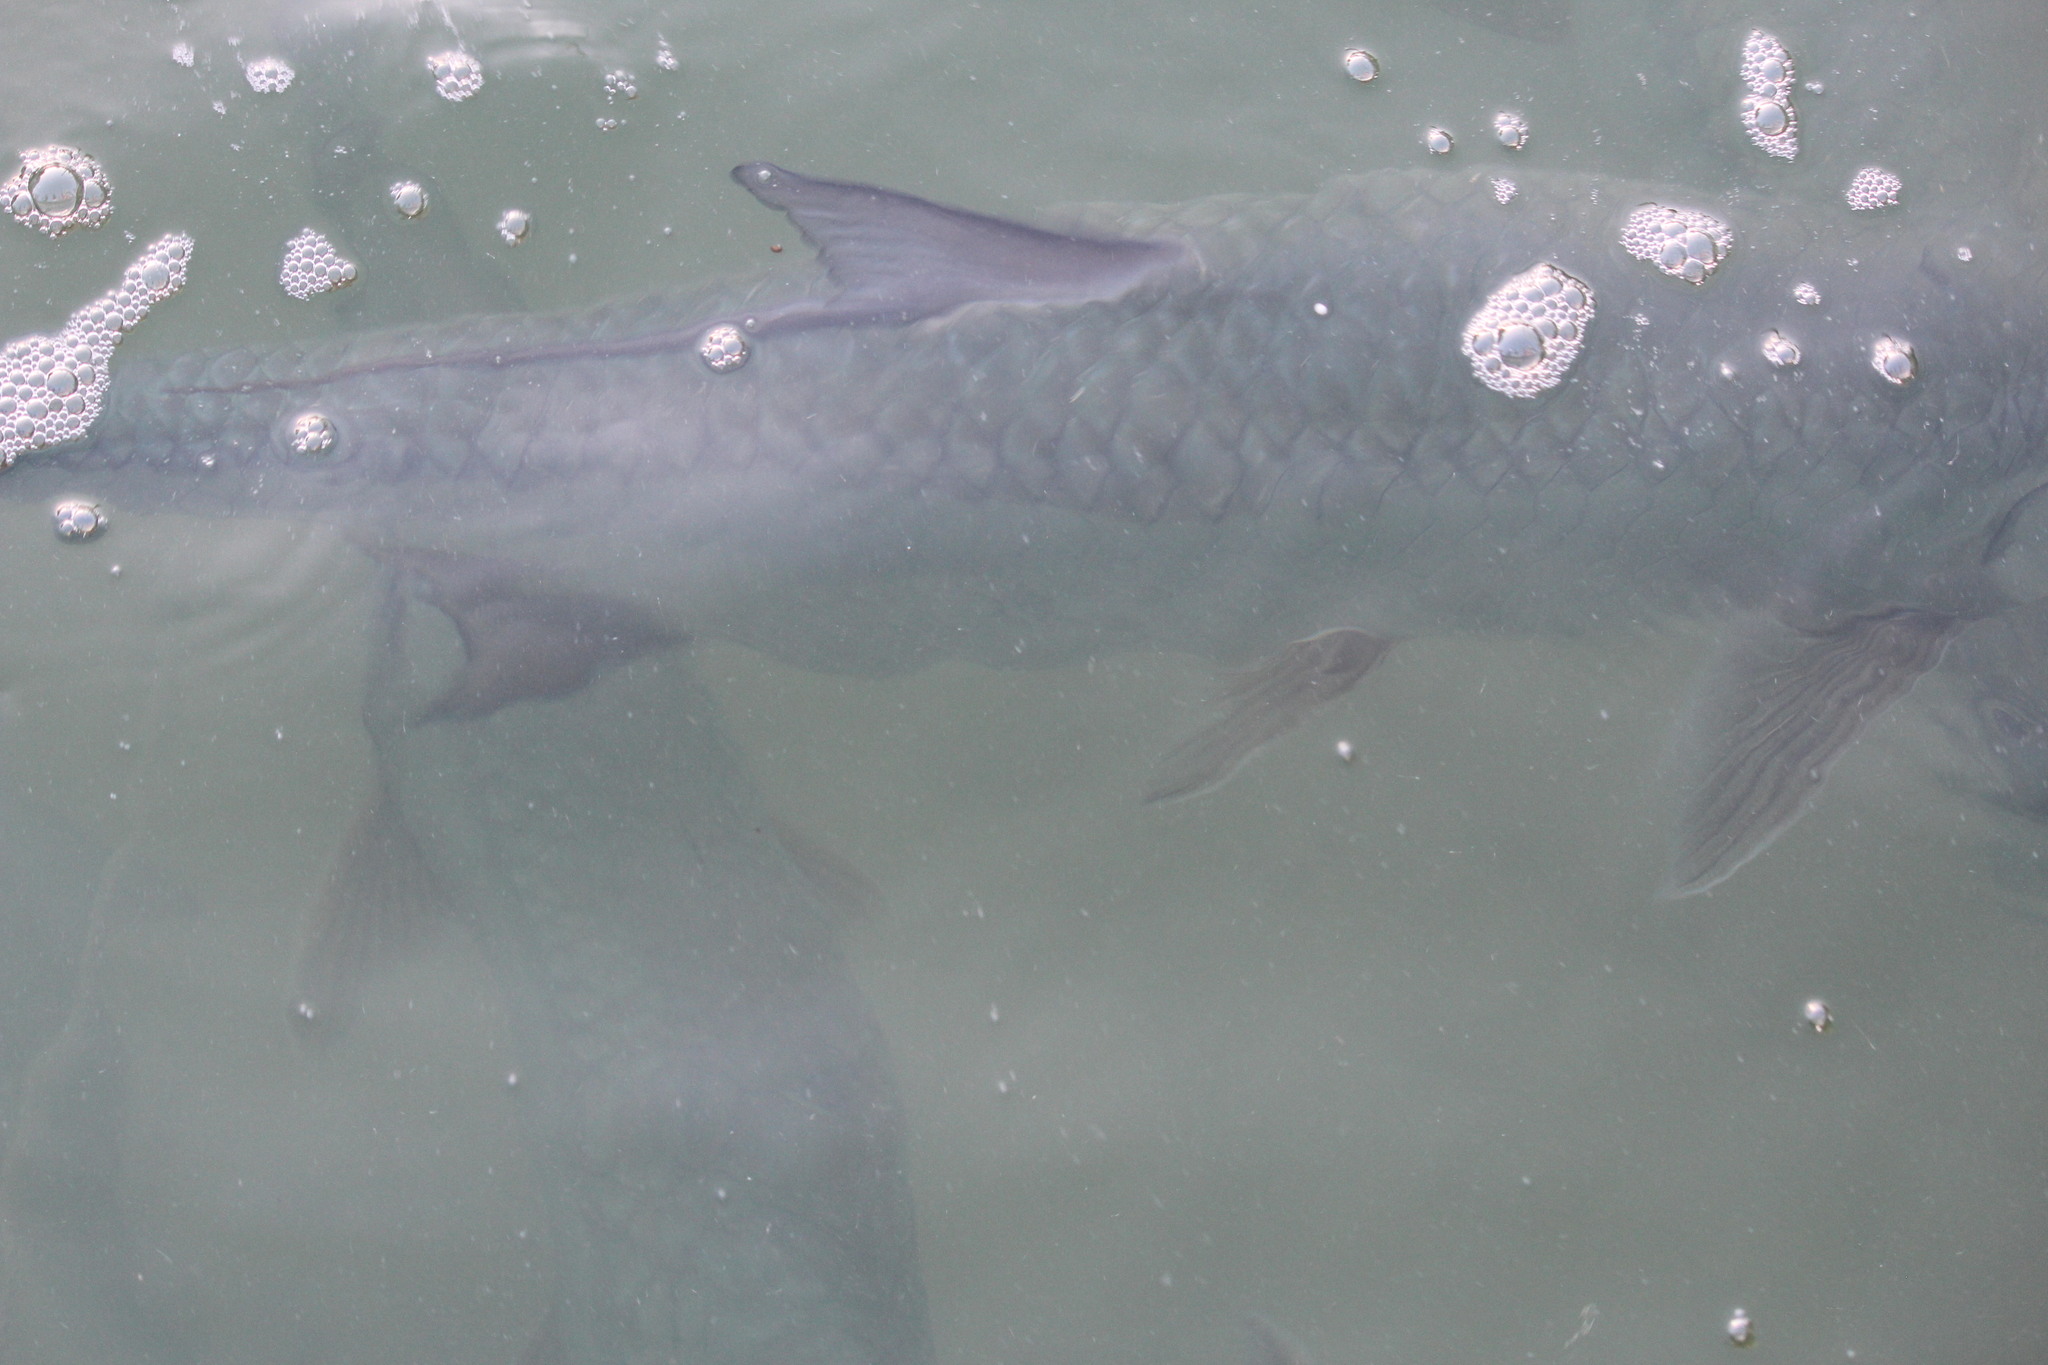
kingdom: Animalia
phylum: Chordata
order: Elopiformes
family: Megalopidae
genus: Megalops
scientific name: Megalops atlanticus
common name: Tarpon
